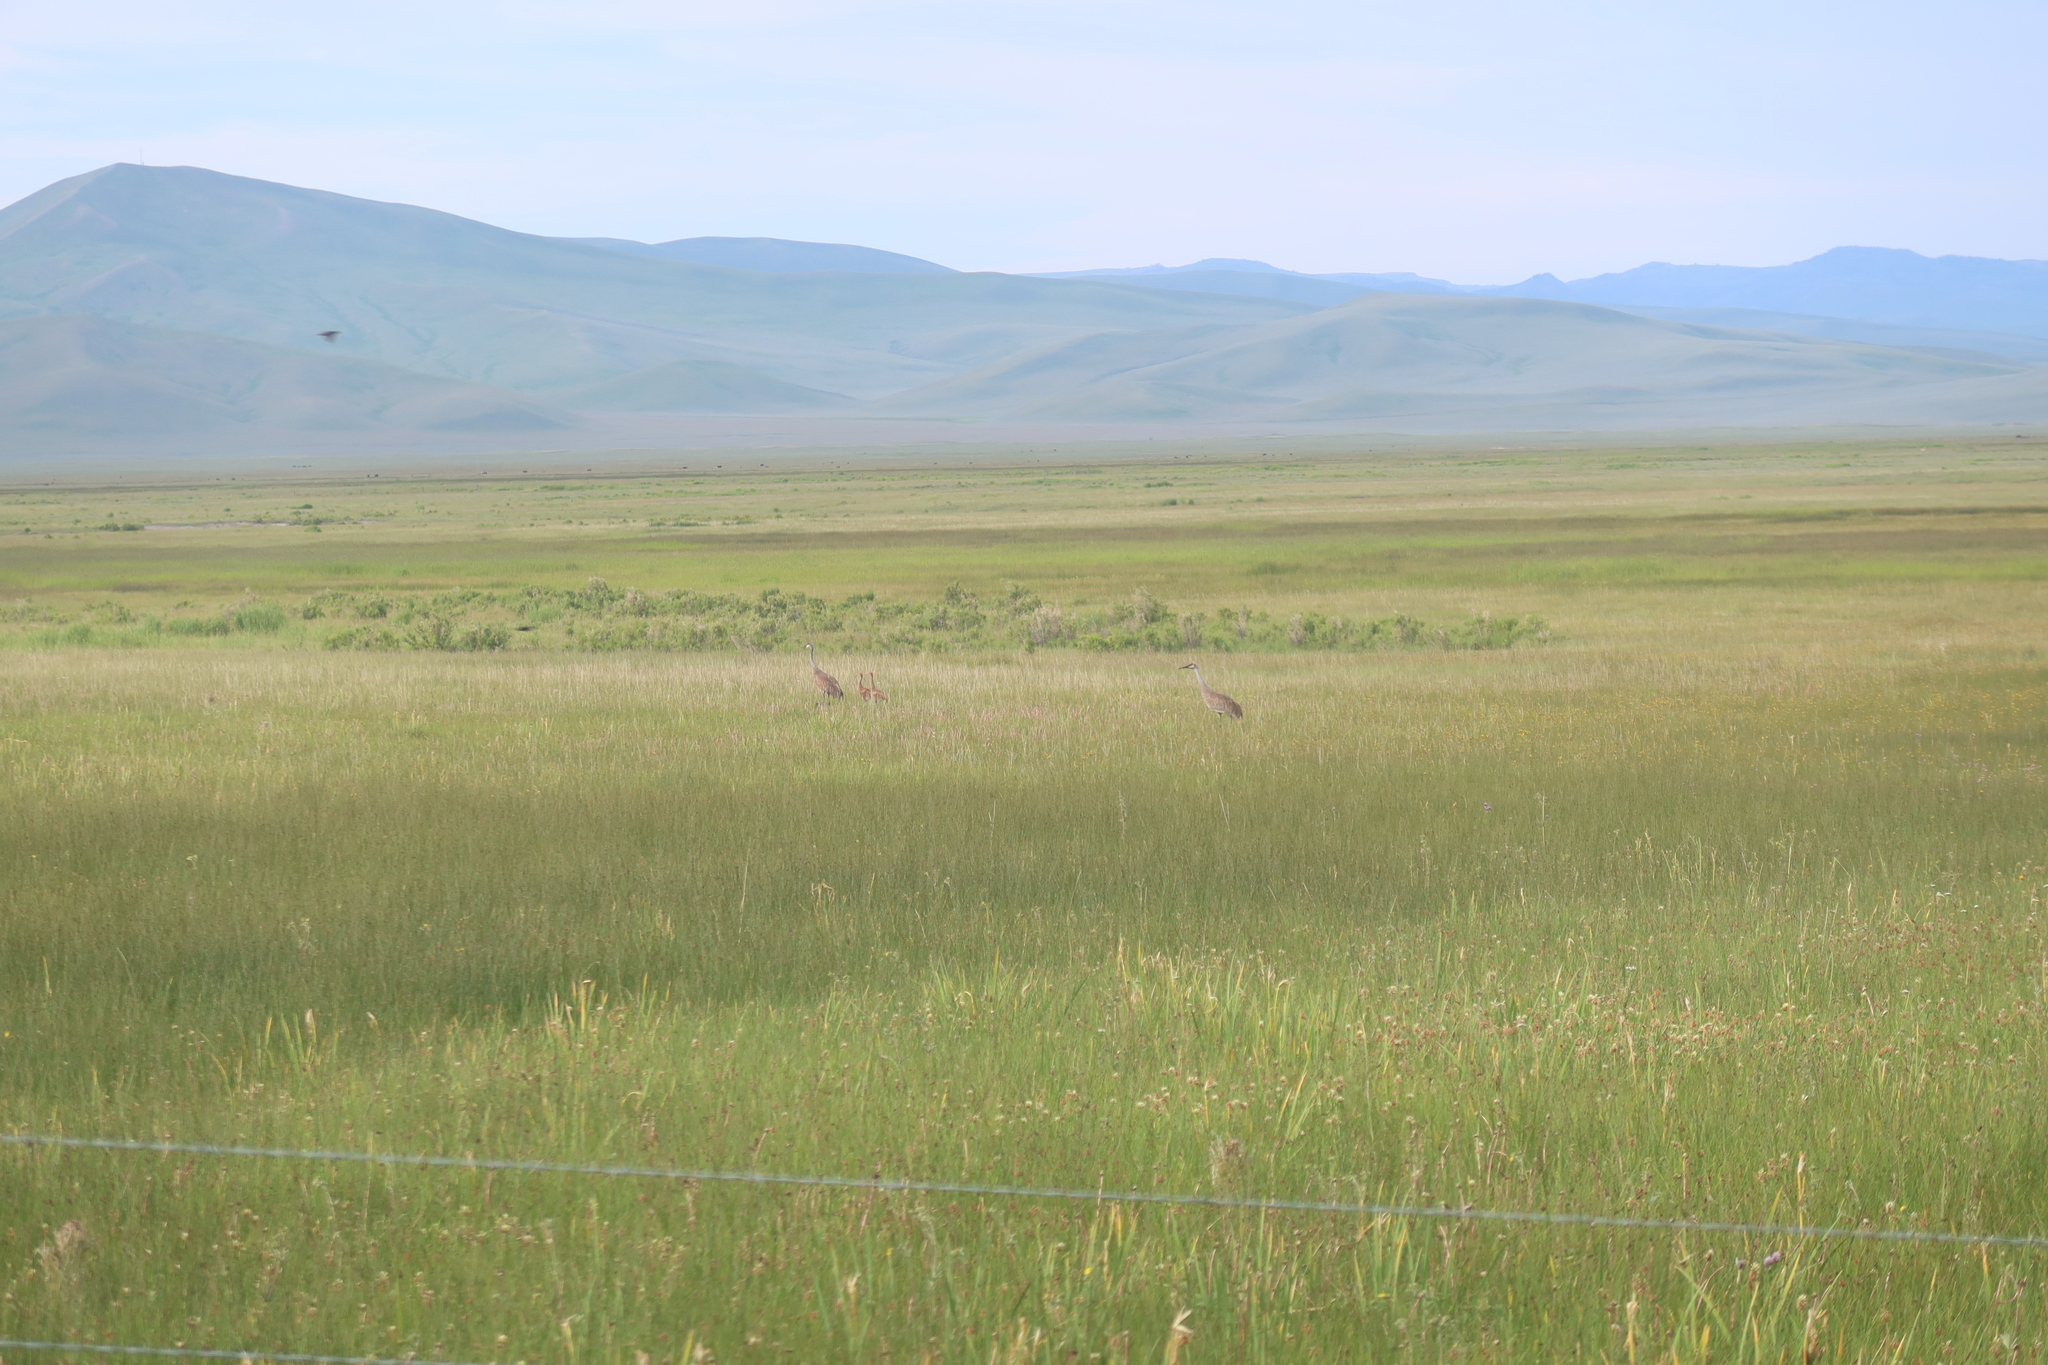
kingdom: Animalia
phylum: Chordata
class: Aves
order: Gruiformes
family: Gruidae
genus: Grus
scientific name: Grus canadensis
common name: Sandhill crane
